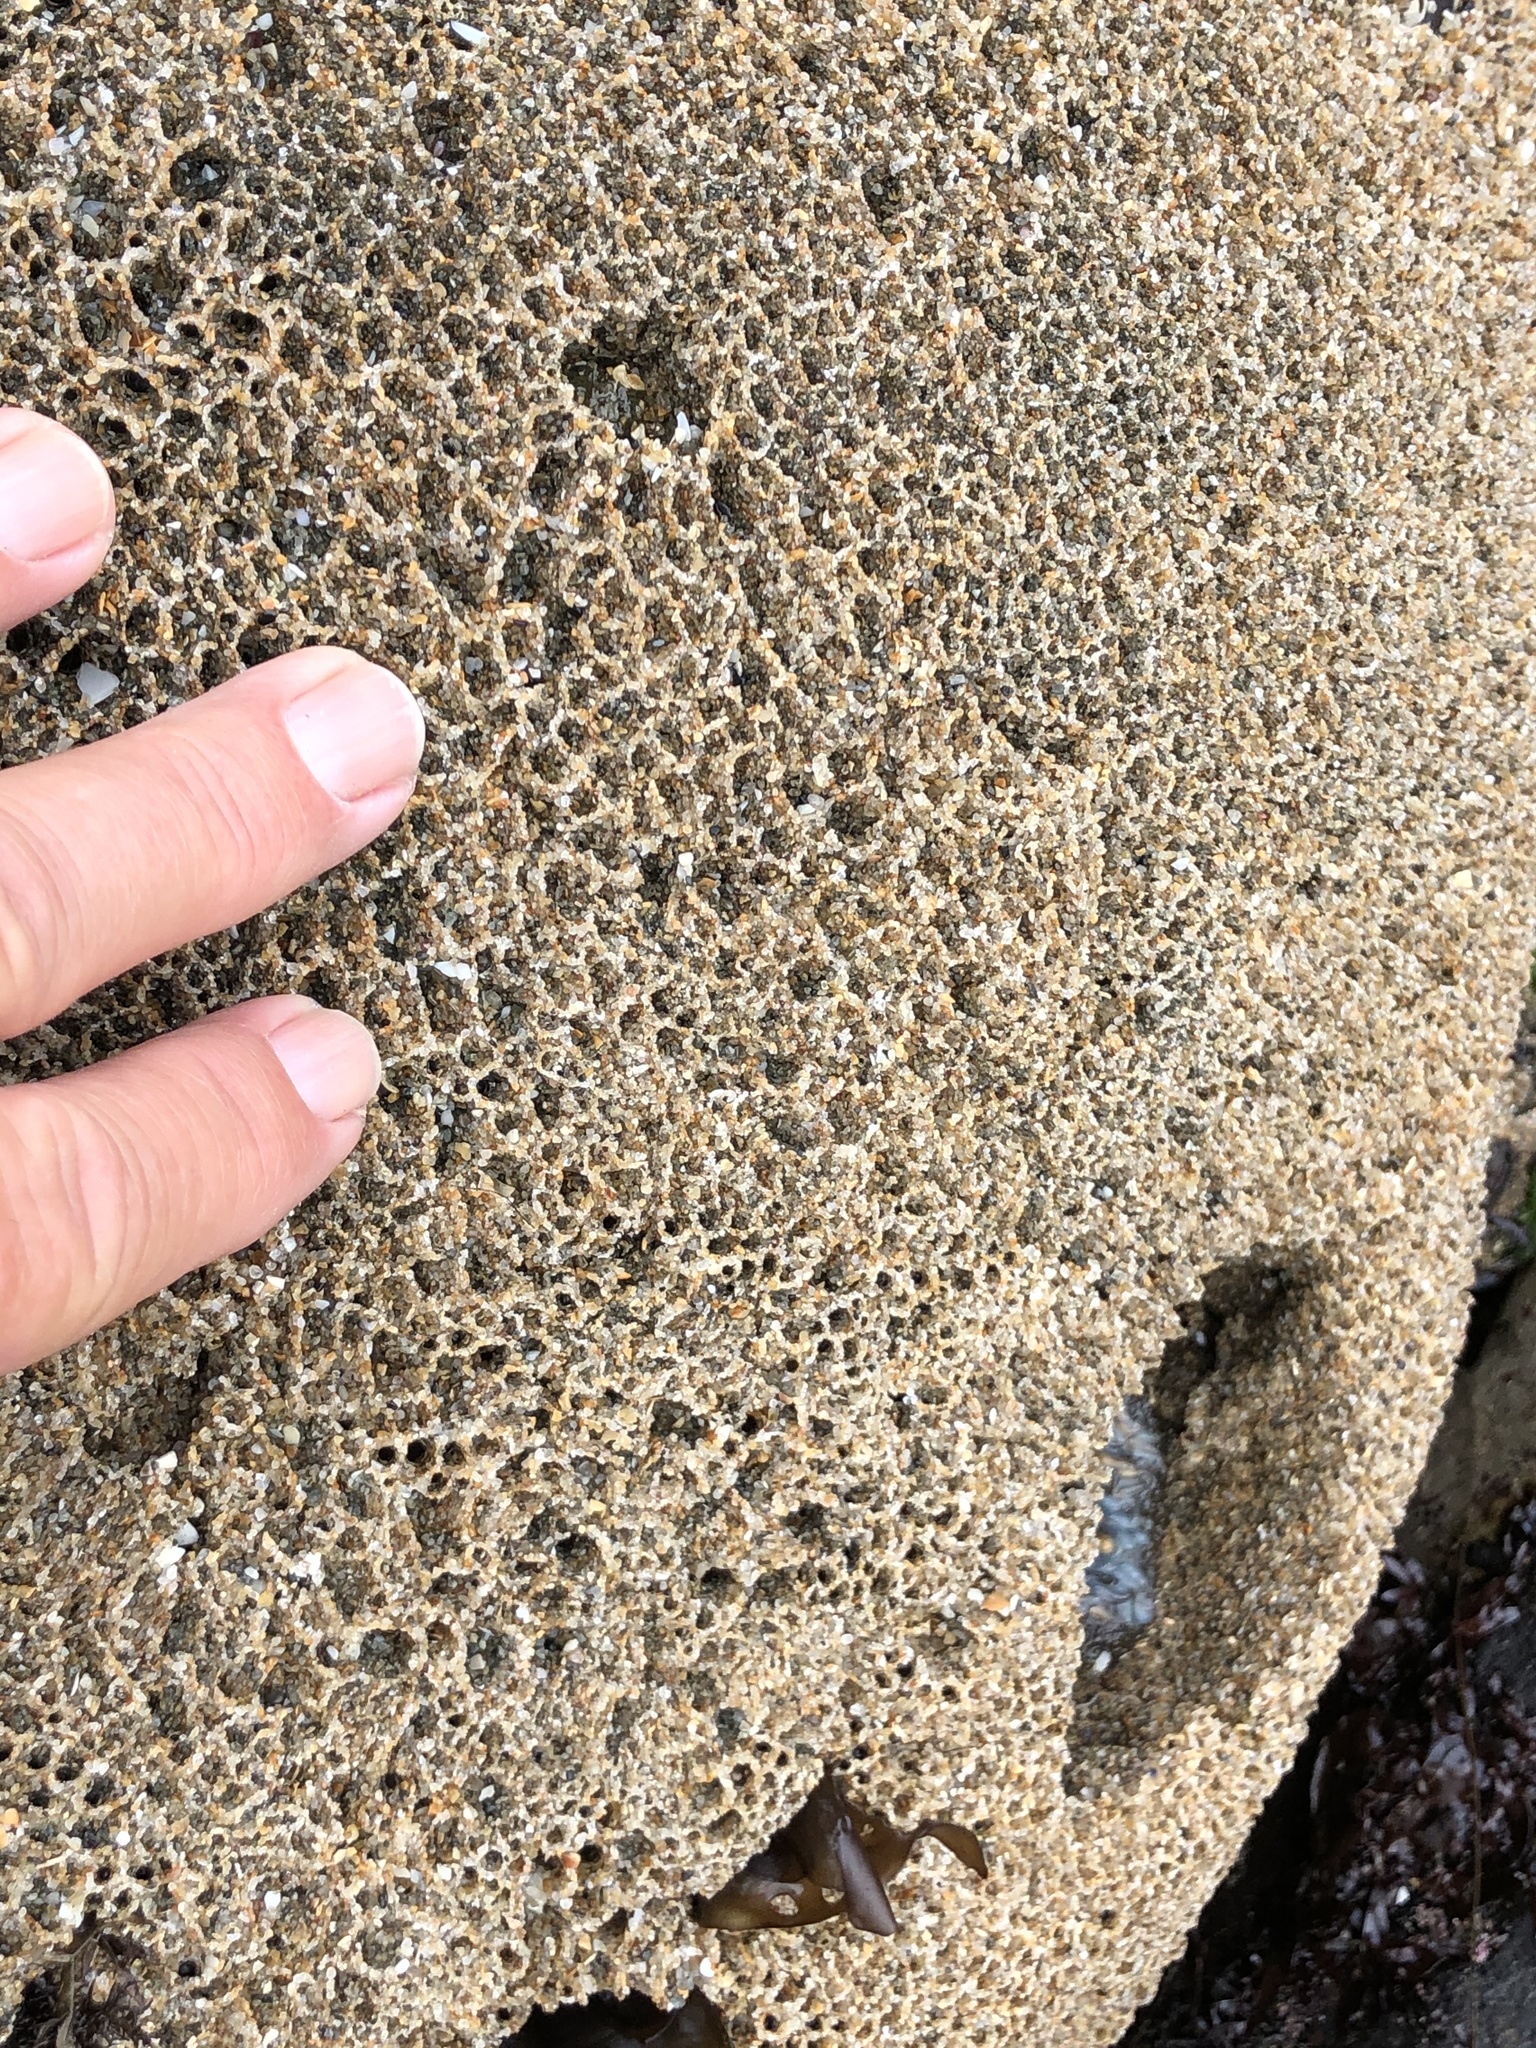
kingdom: Animalia
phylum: Annelida
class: Polychaeta
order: Sabellida
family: Sabellariidae
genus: Phragmatopoma
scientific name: Phragmatopoma californica
